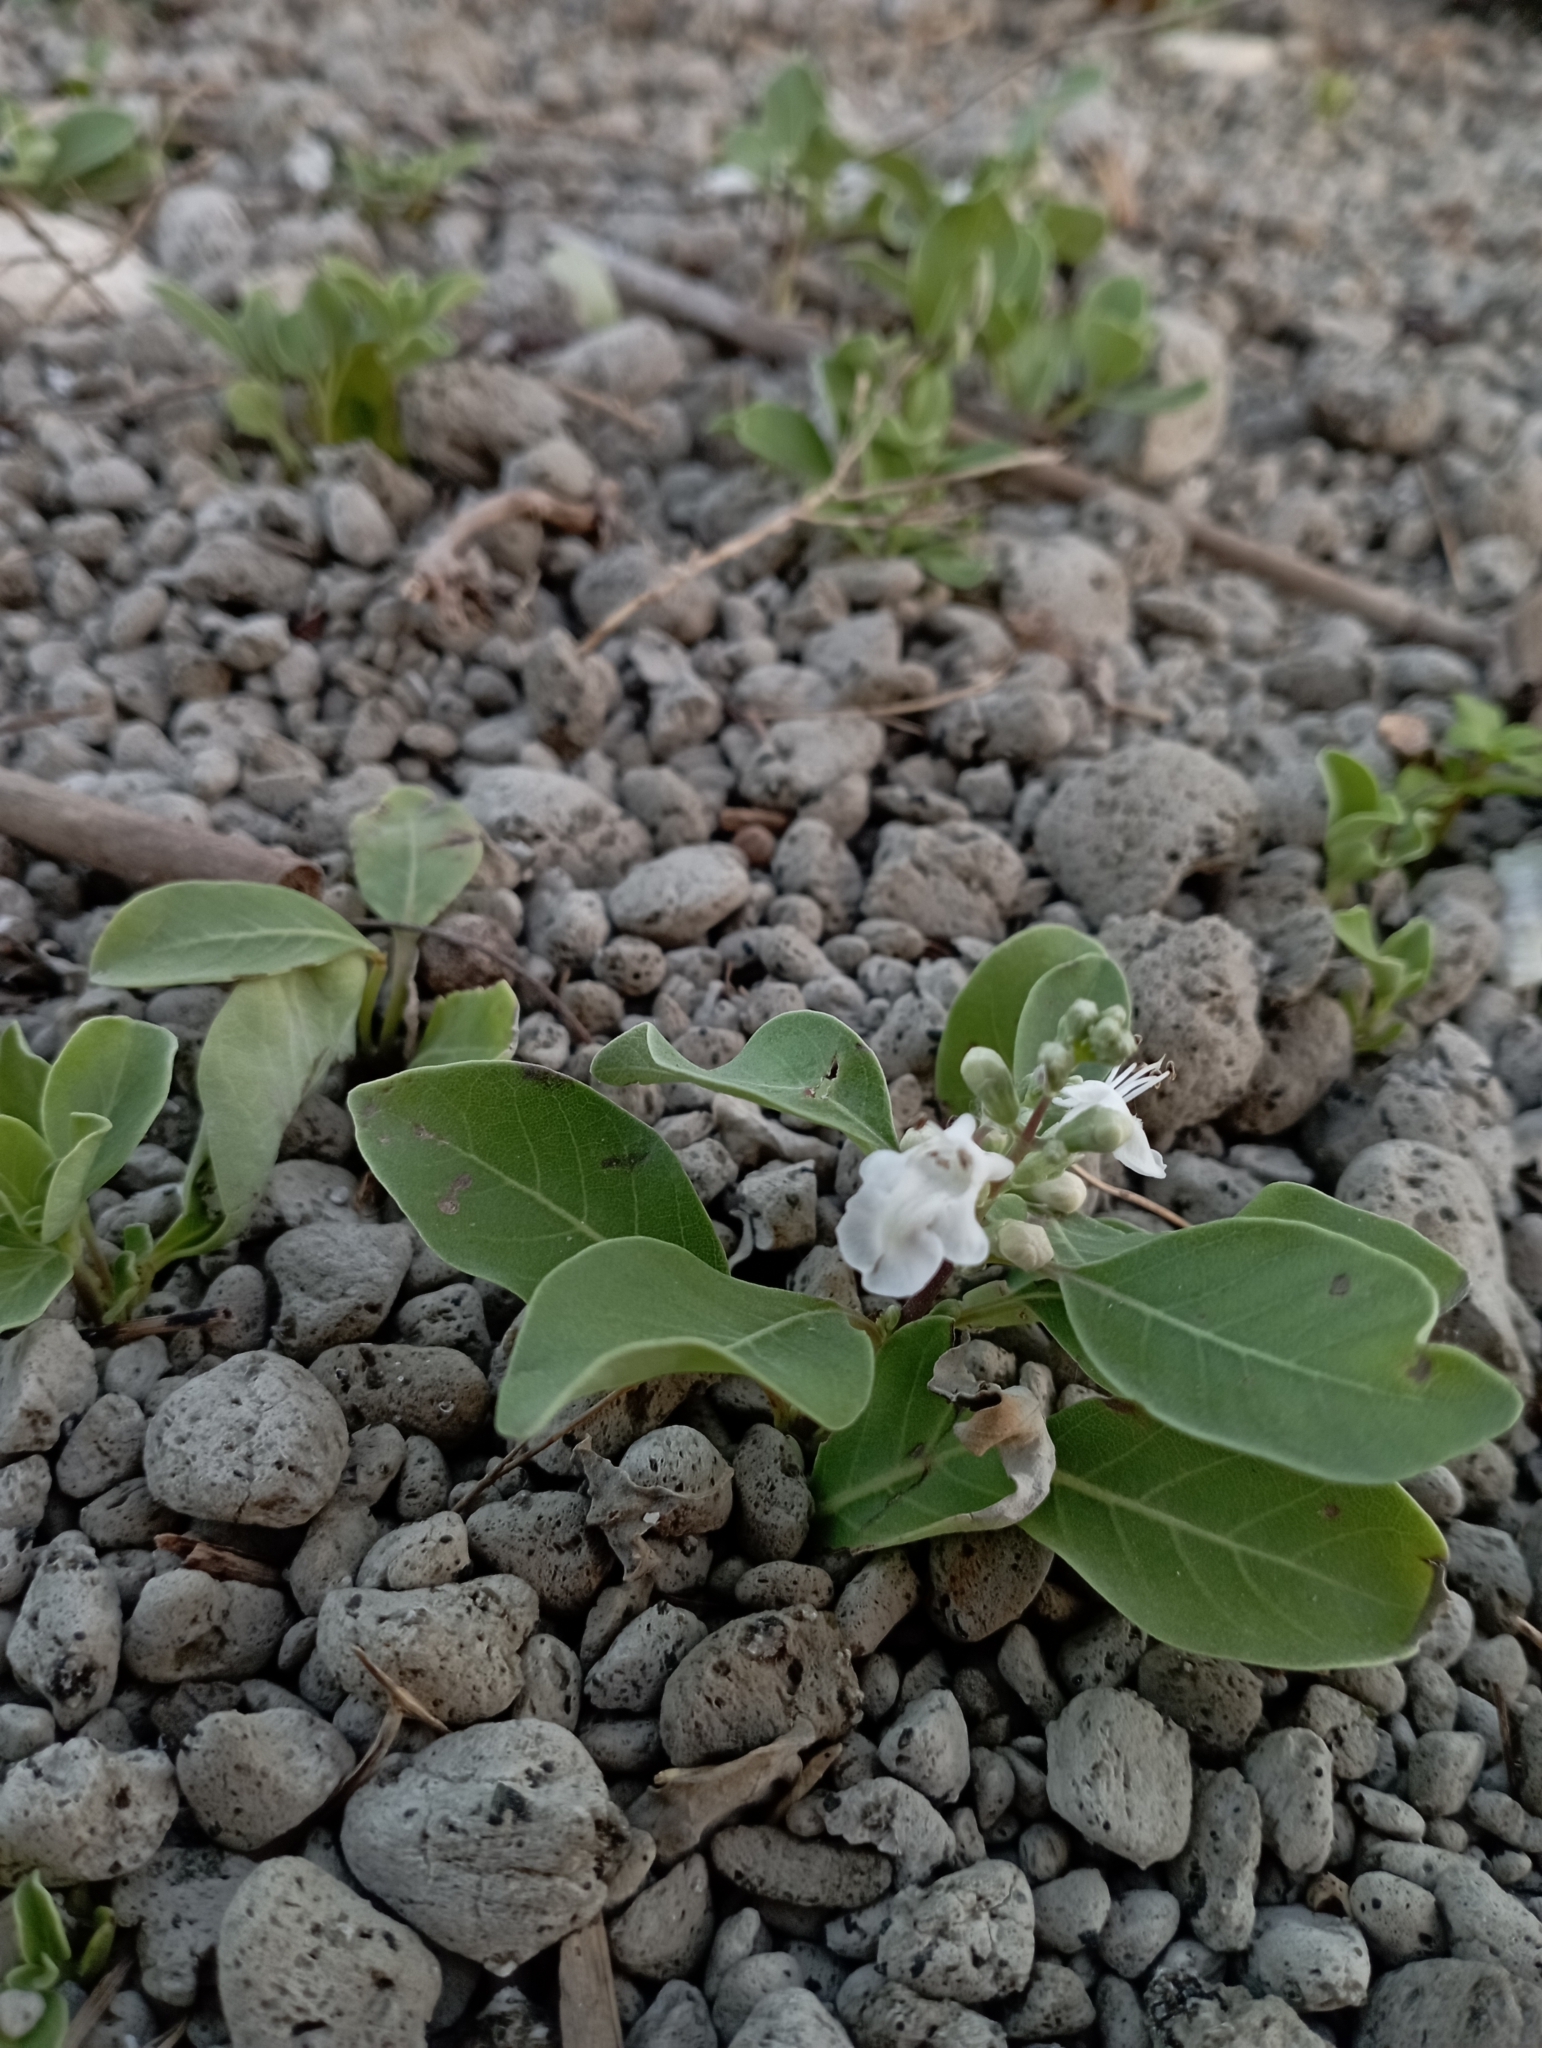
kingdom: Plantae
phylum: Tracheophyta
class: Magnoliopsida
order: Lamiales
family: Lamiaceae
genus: Vitex
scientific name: Vitex rotundifolia
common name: Beach vitex
